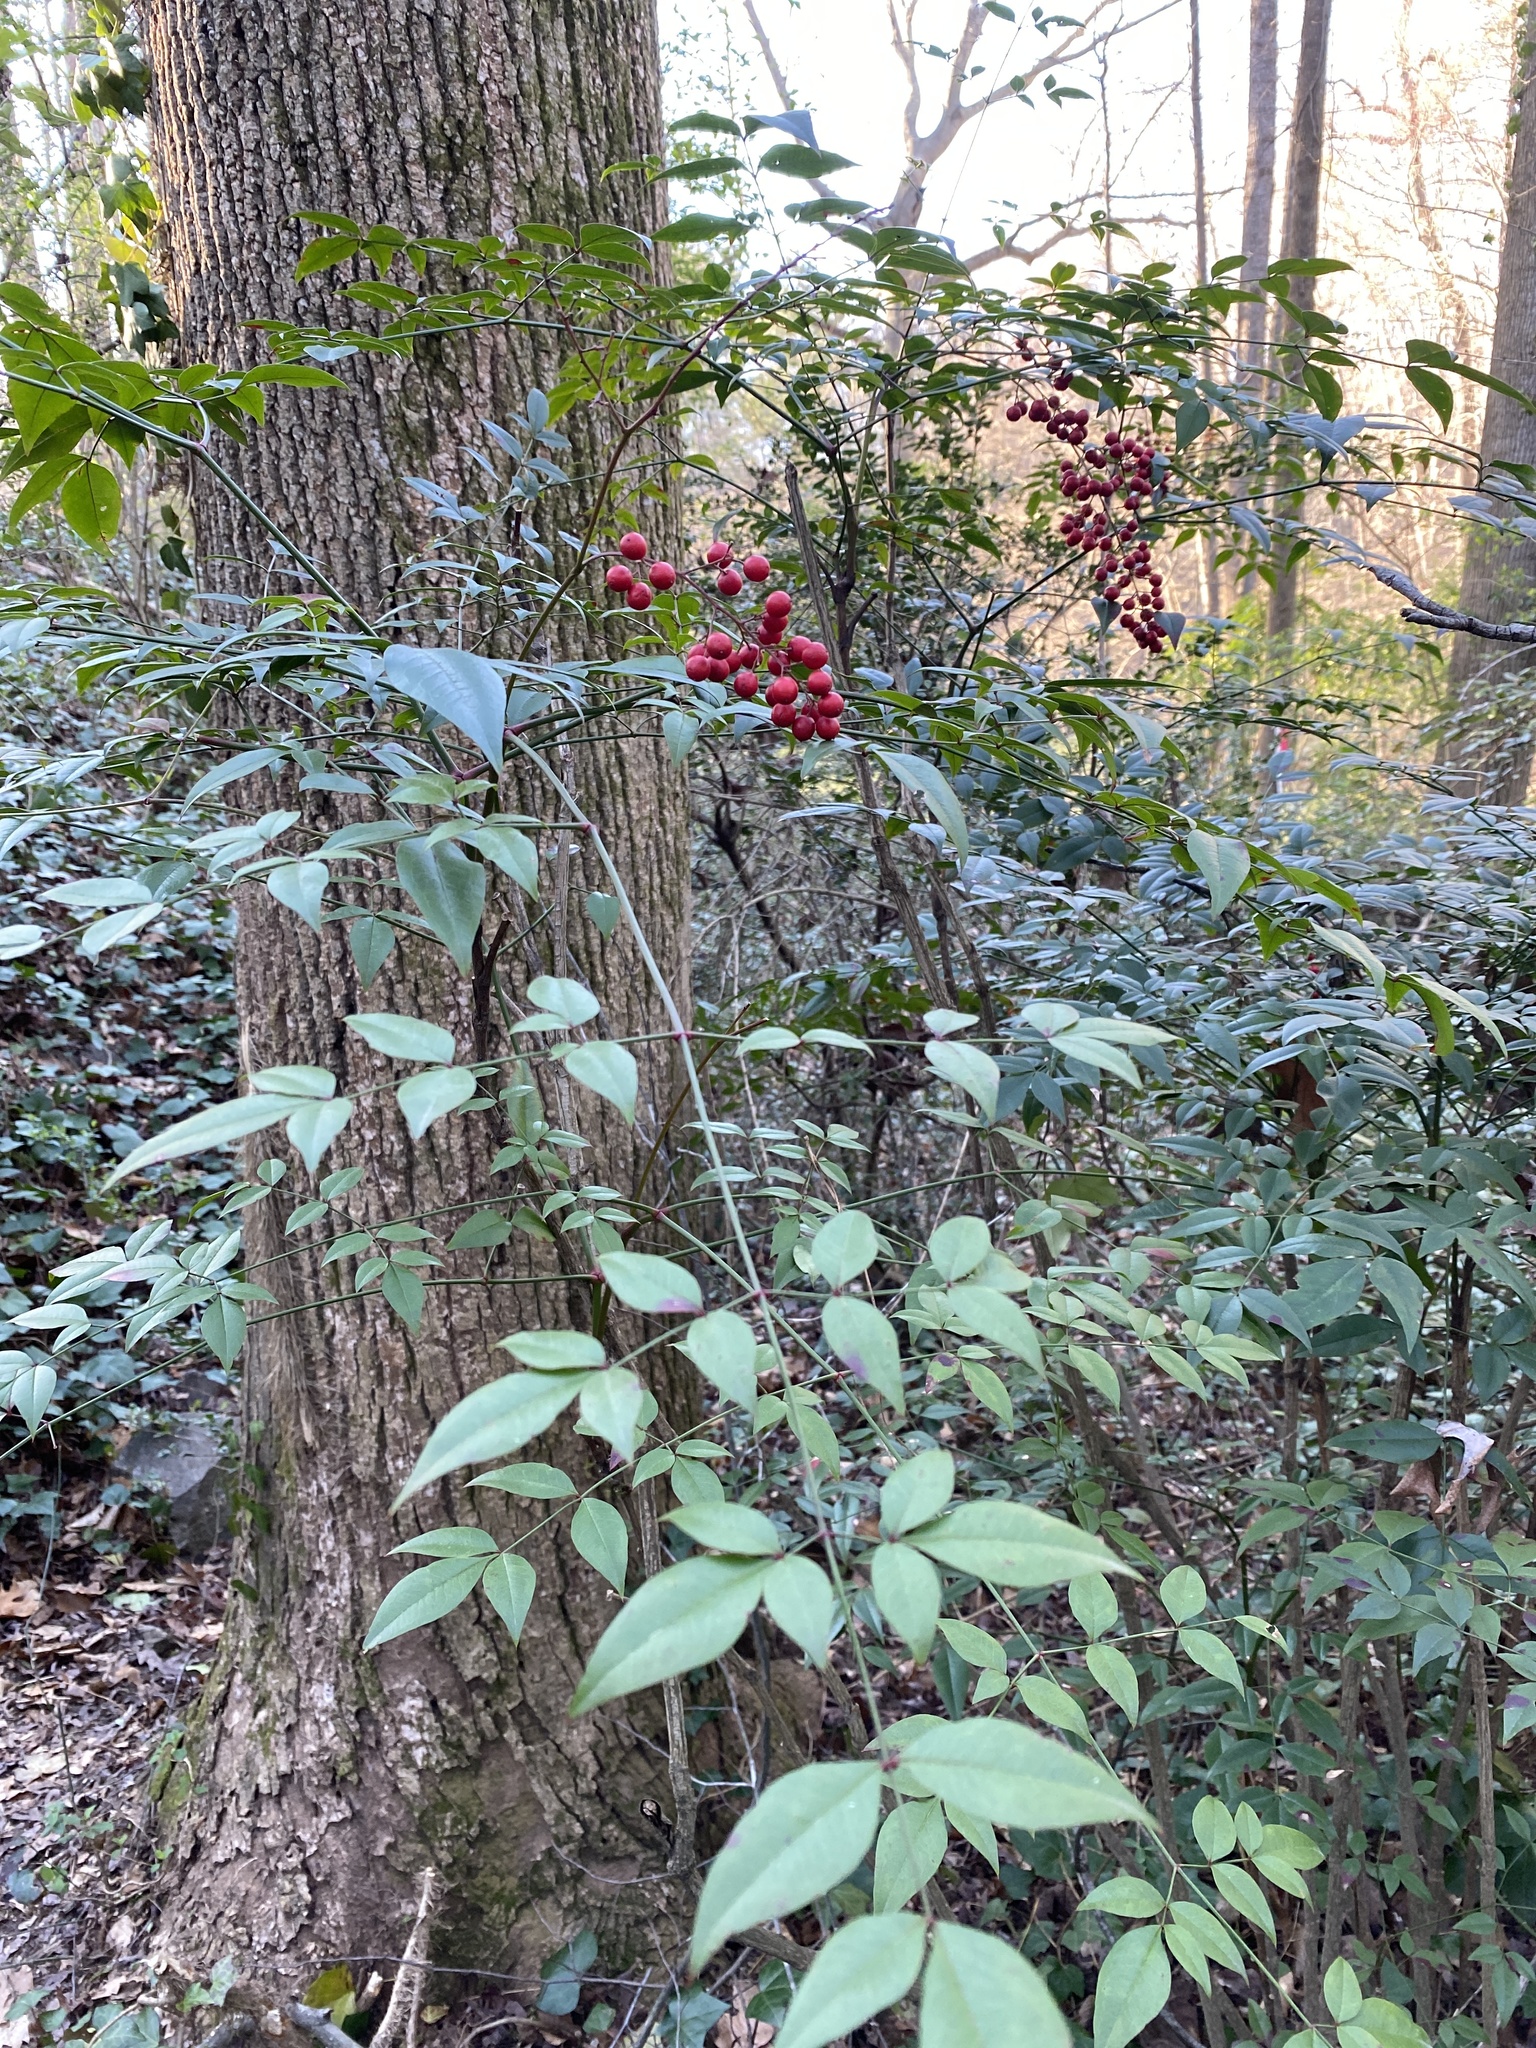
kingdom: Plantae
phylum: Tracheophyta
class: Magnoliopsida
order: Ranunculales
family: Berberidaceae
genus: Nandina
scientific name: Nandina domestica
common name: Sacred bamboo
